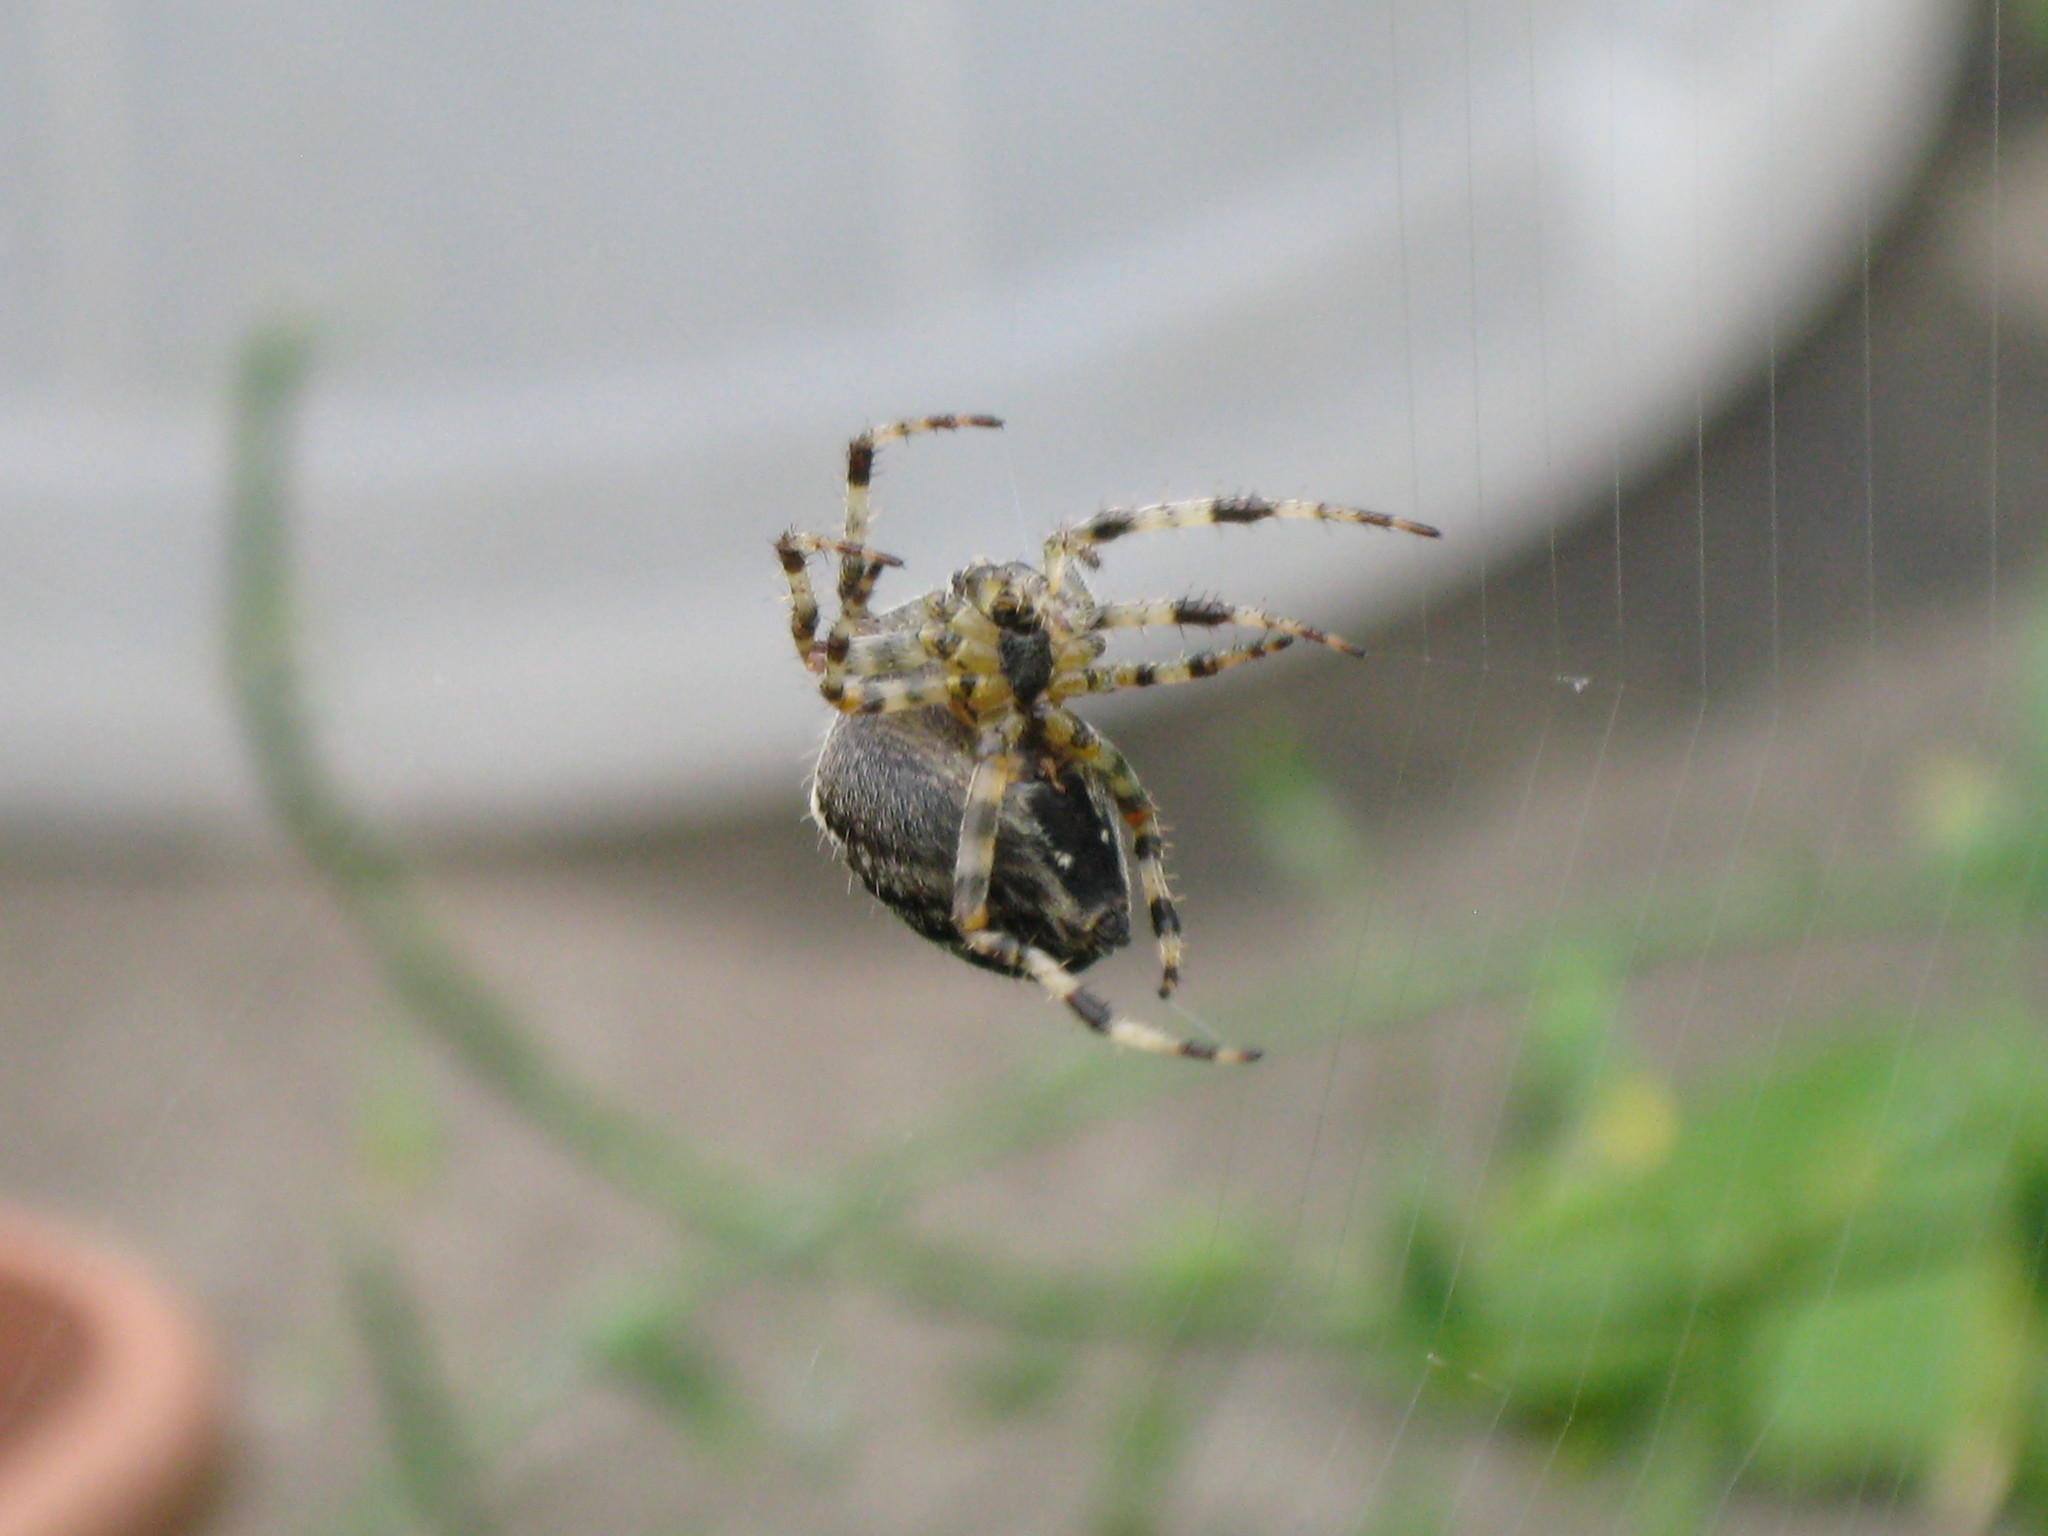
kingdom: Animalia
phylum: Arthropoda
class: Arachnida
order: Araneae
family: Araneidae
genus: Araneus
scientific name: Araneus diadematus
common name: Cross orbweaver
